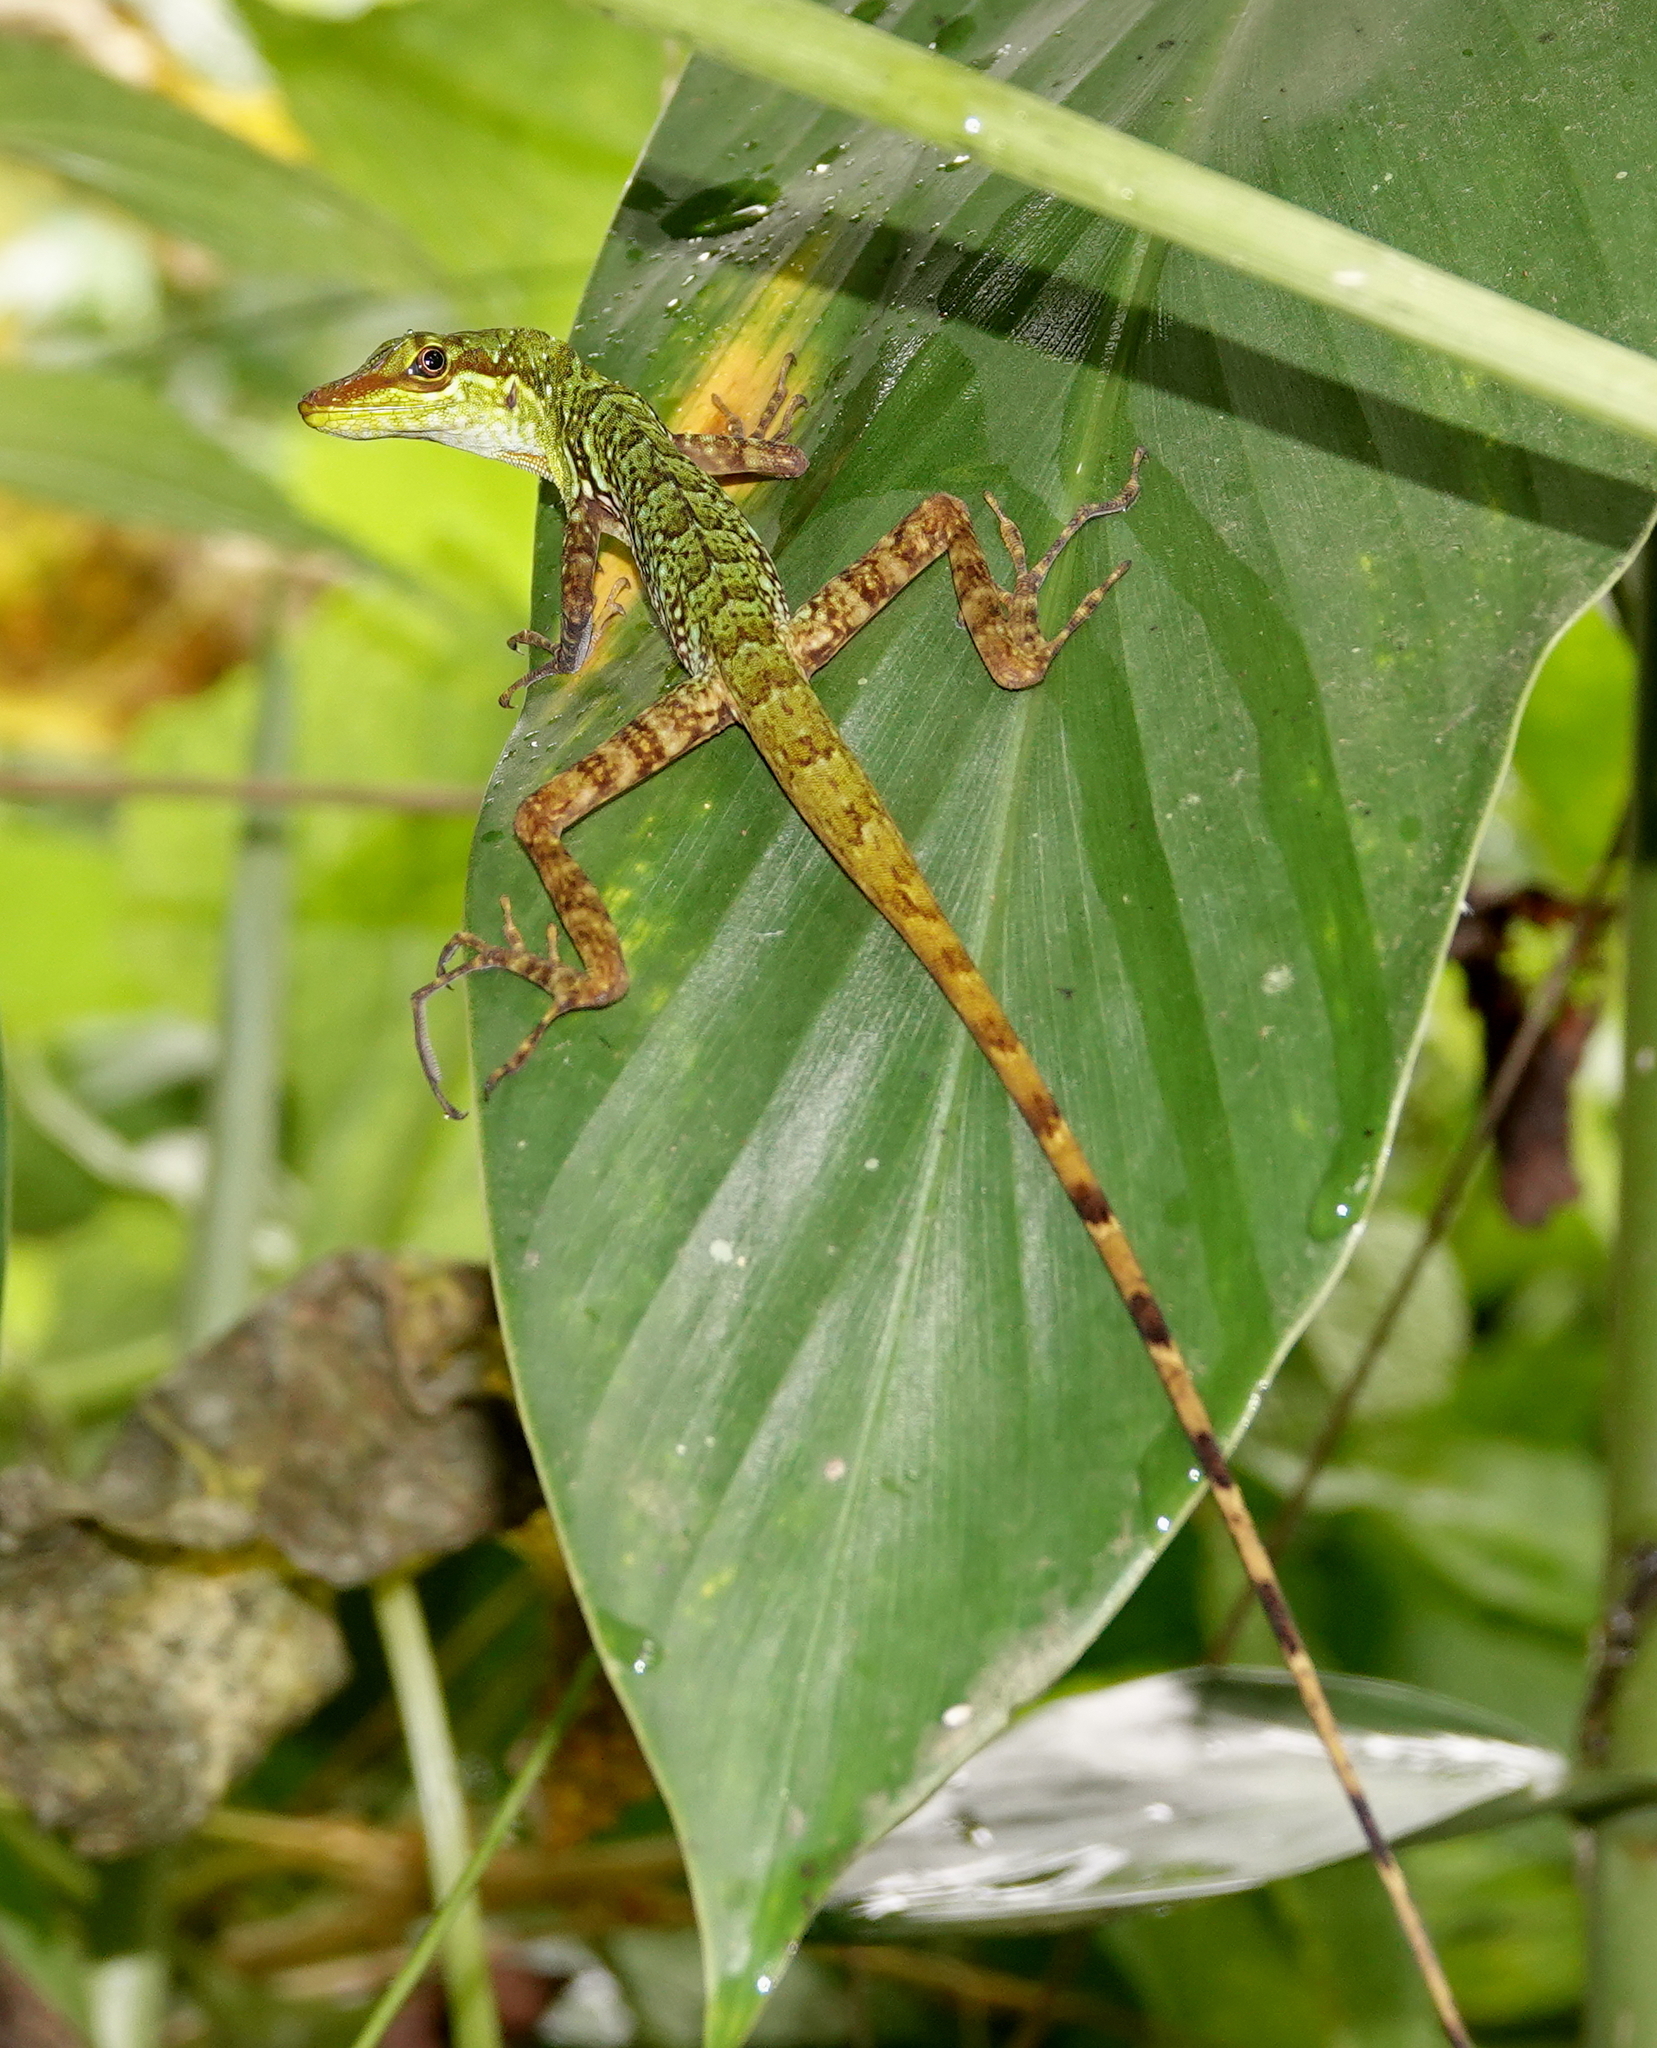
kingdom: Animalia
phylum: Chordata
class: Squamata
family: Dactyloidae
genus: Anolis
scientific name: Anolis ventrimaculatus
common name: Speckled anole
